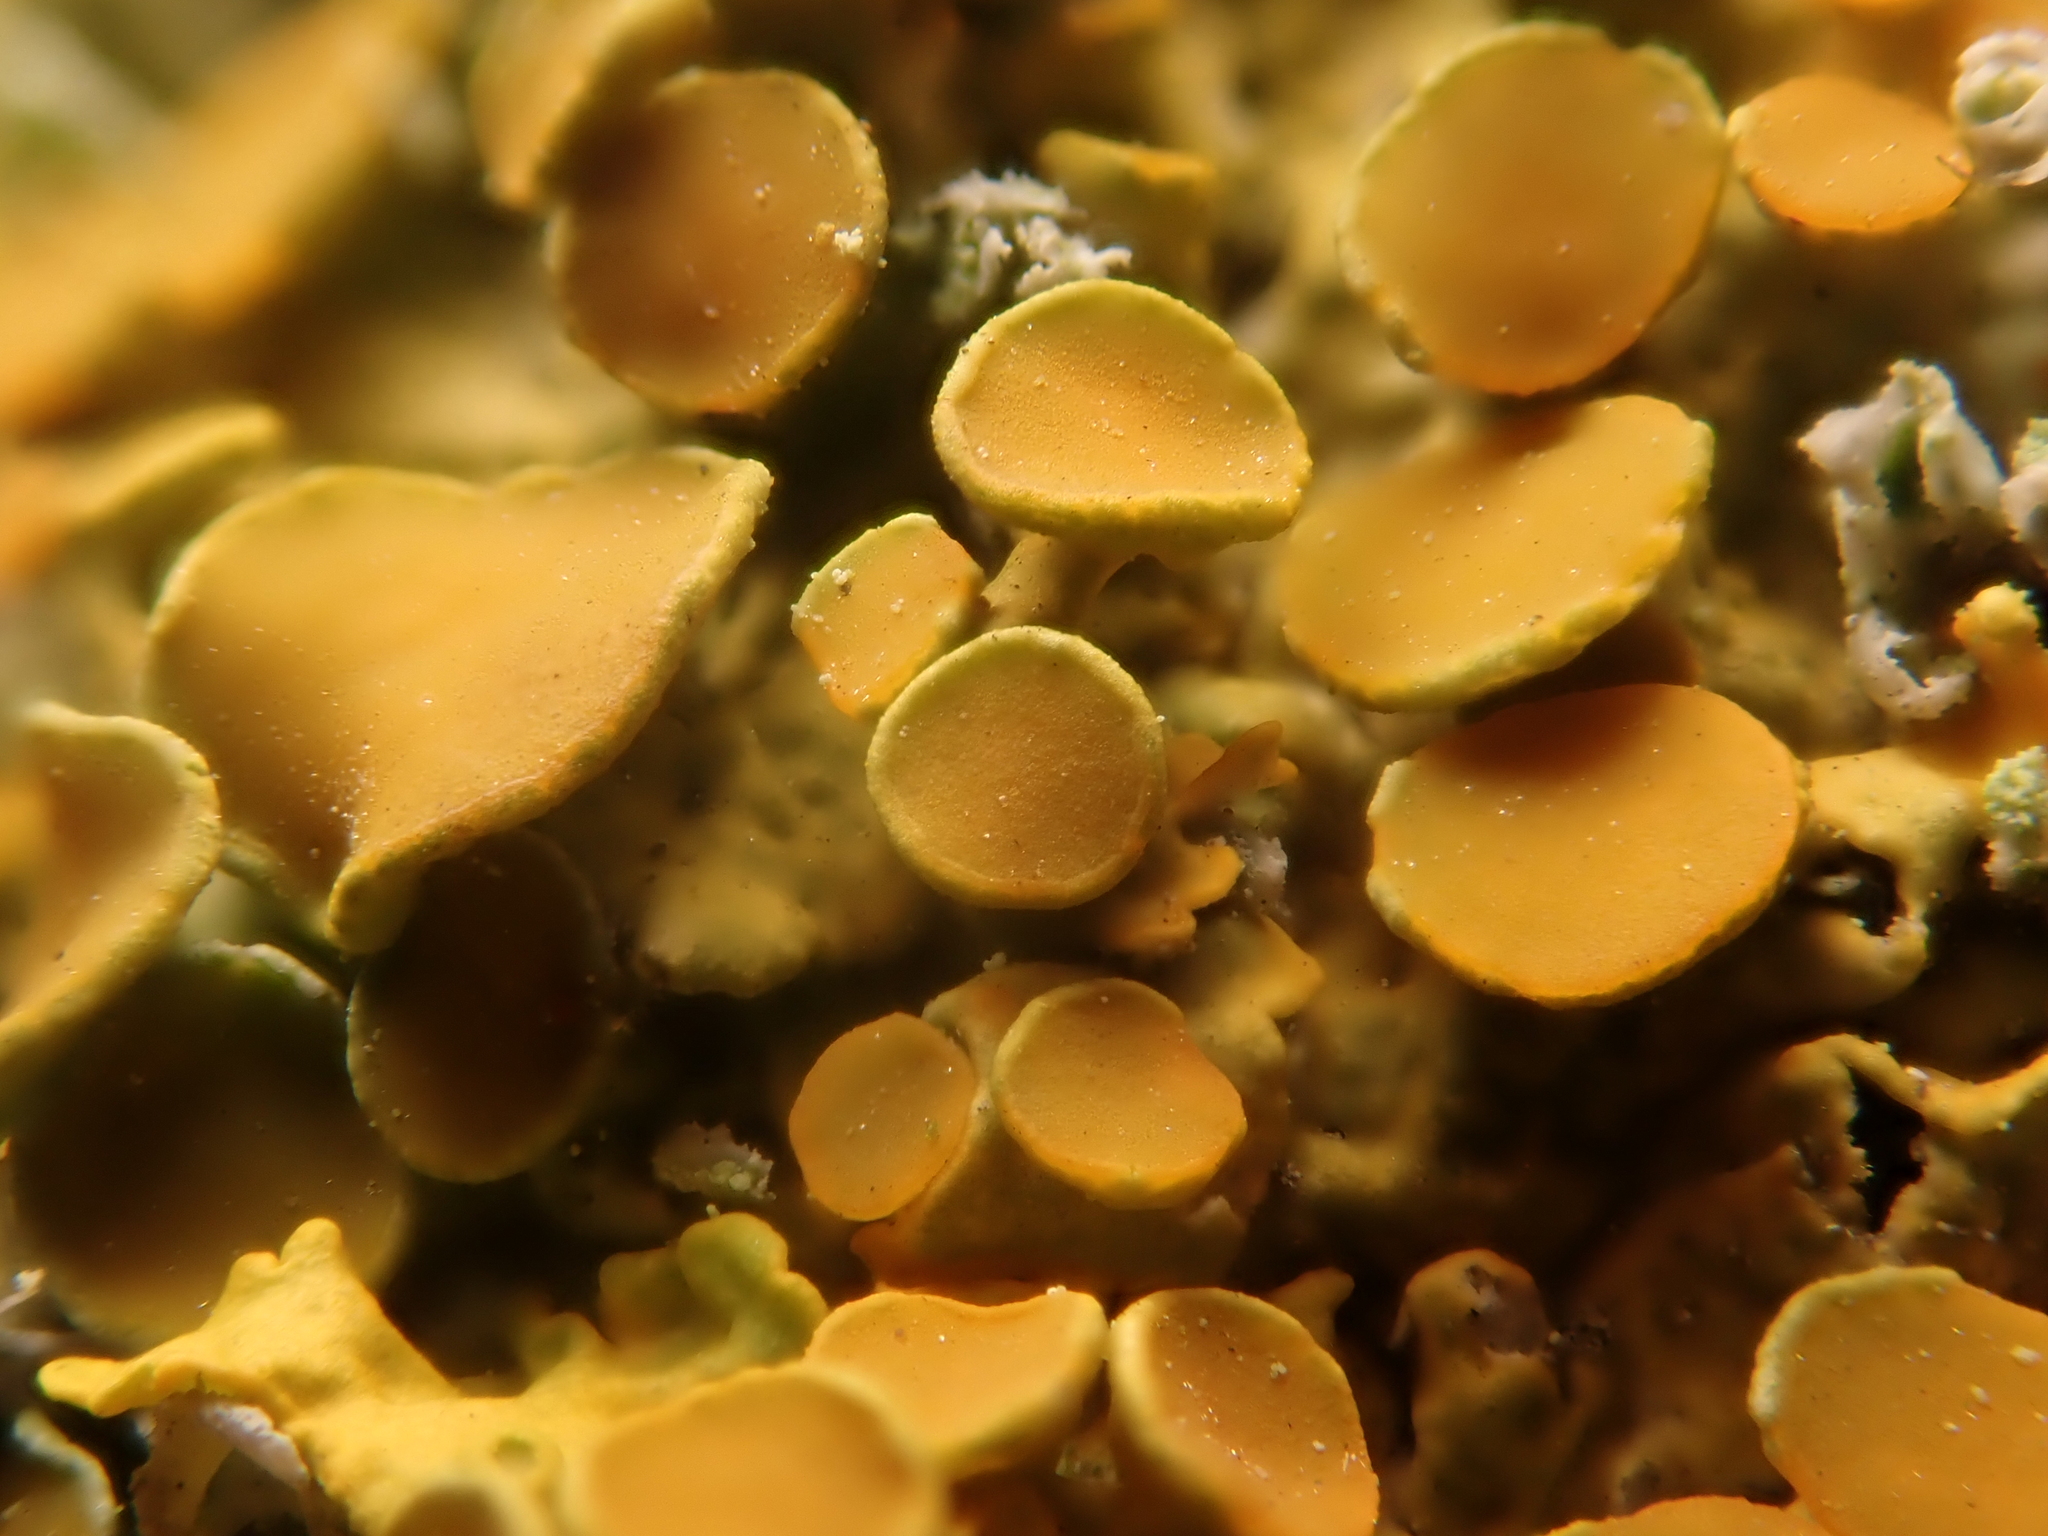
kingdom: Fungi
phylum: Ascomycota
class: Lecanoromycetes
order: Teloschistales
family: Teloschistaceae
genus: Xanthoria
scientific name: Xanthoria parietina
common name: Common orange lichen
